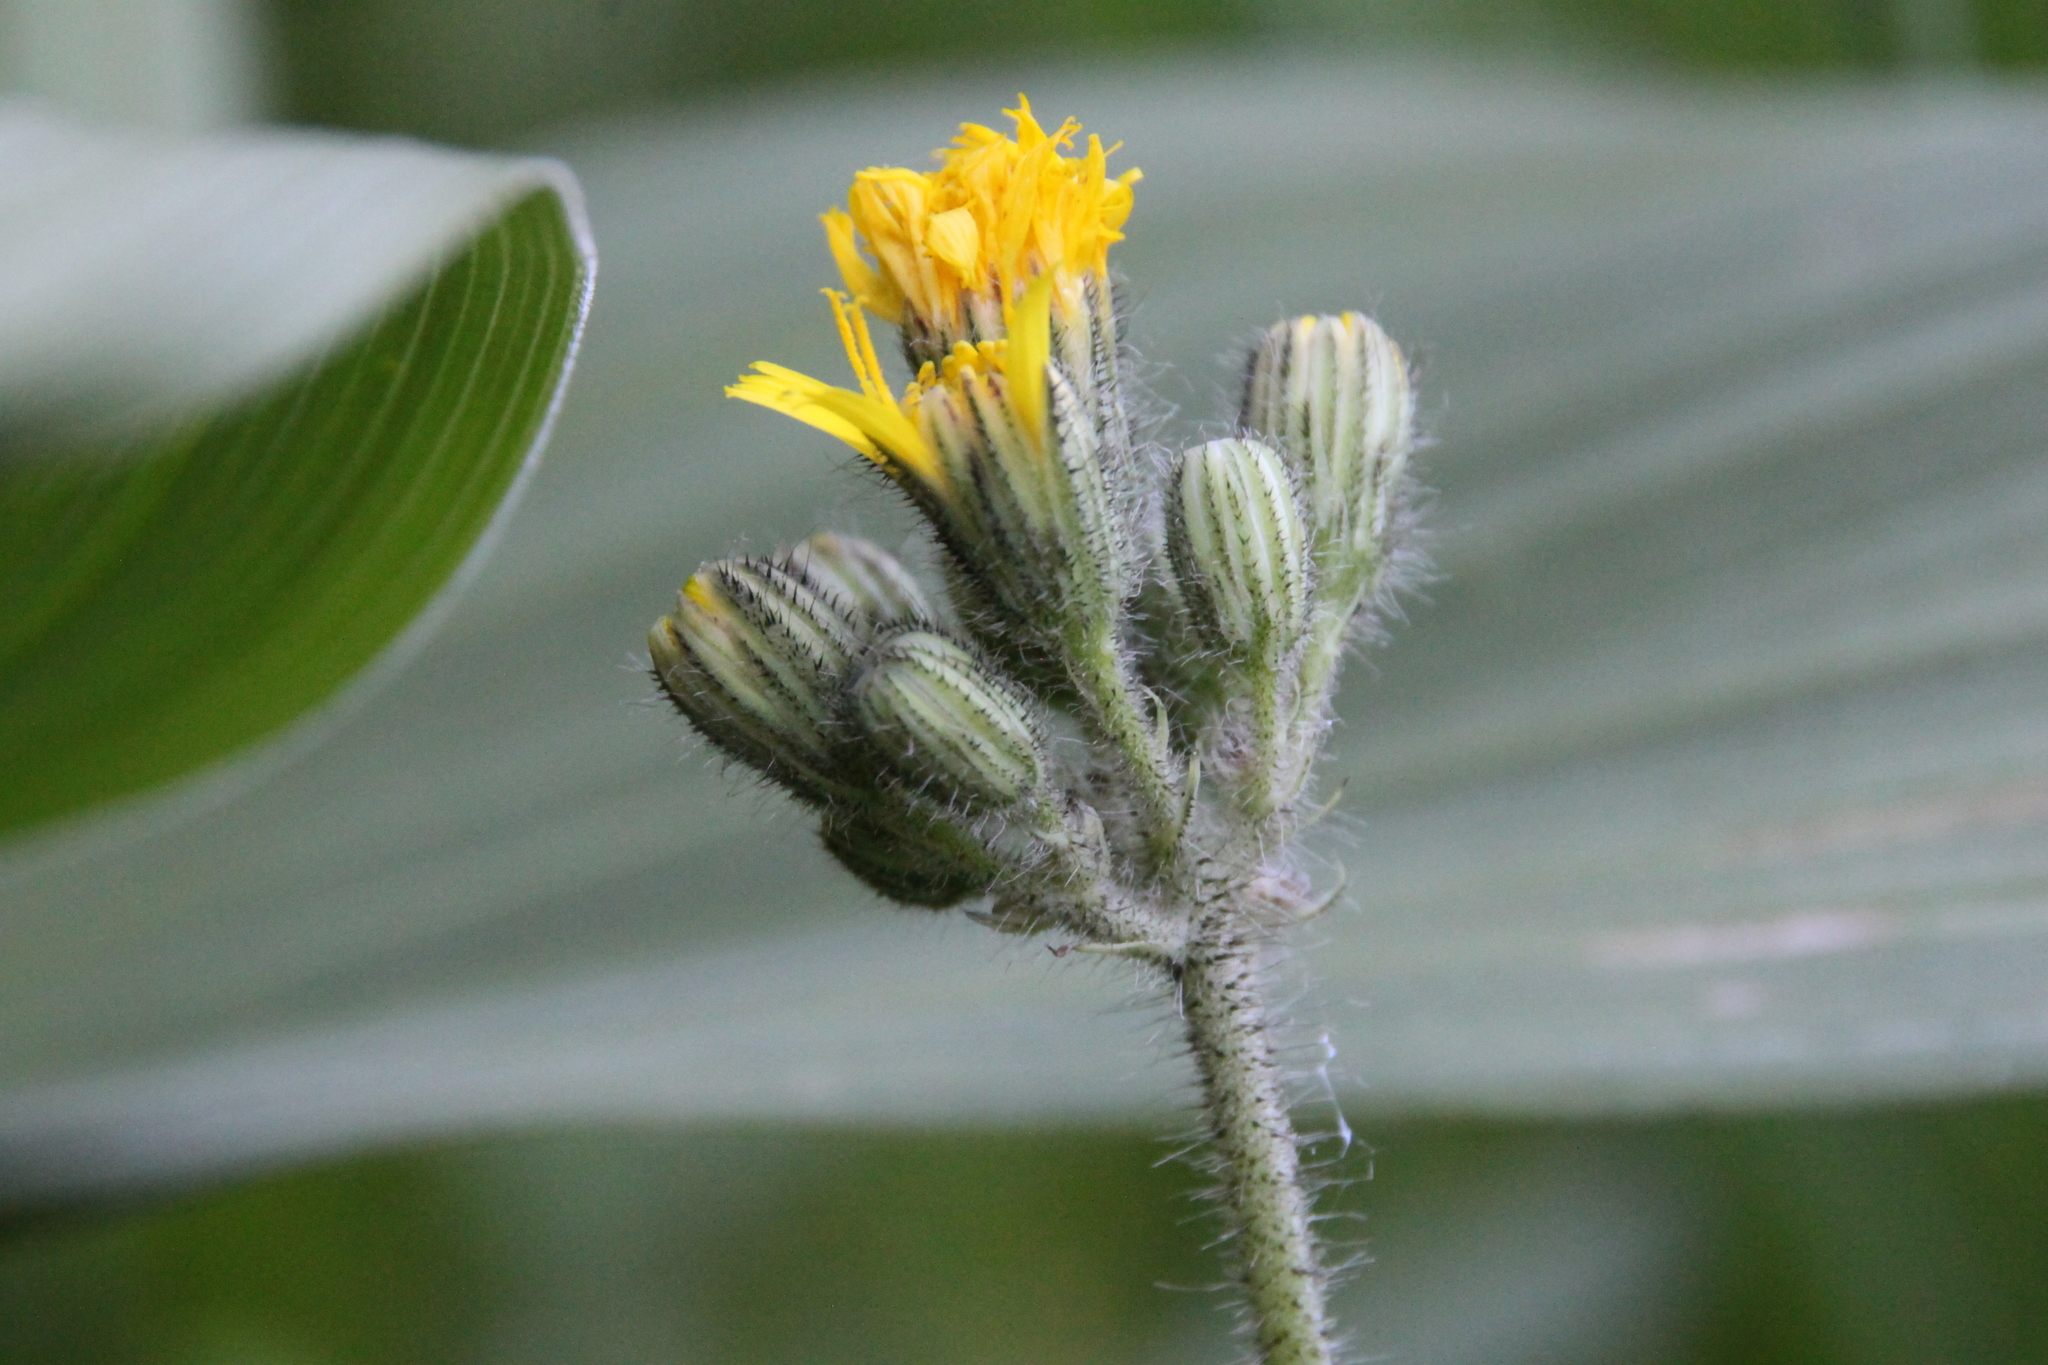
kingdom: Plantae
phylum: Tracheophyta
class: Magnoliopsida
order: Asterales
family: Asteraceae
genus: Pilosella
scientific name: Pilosella
